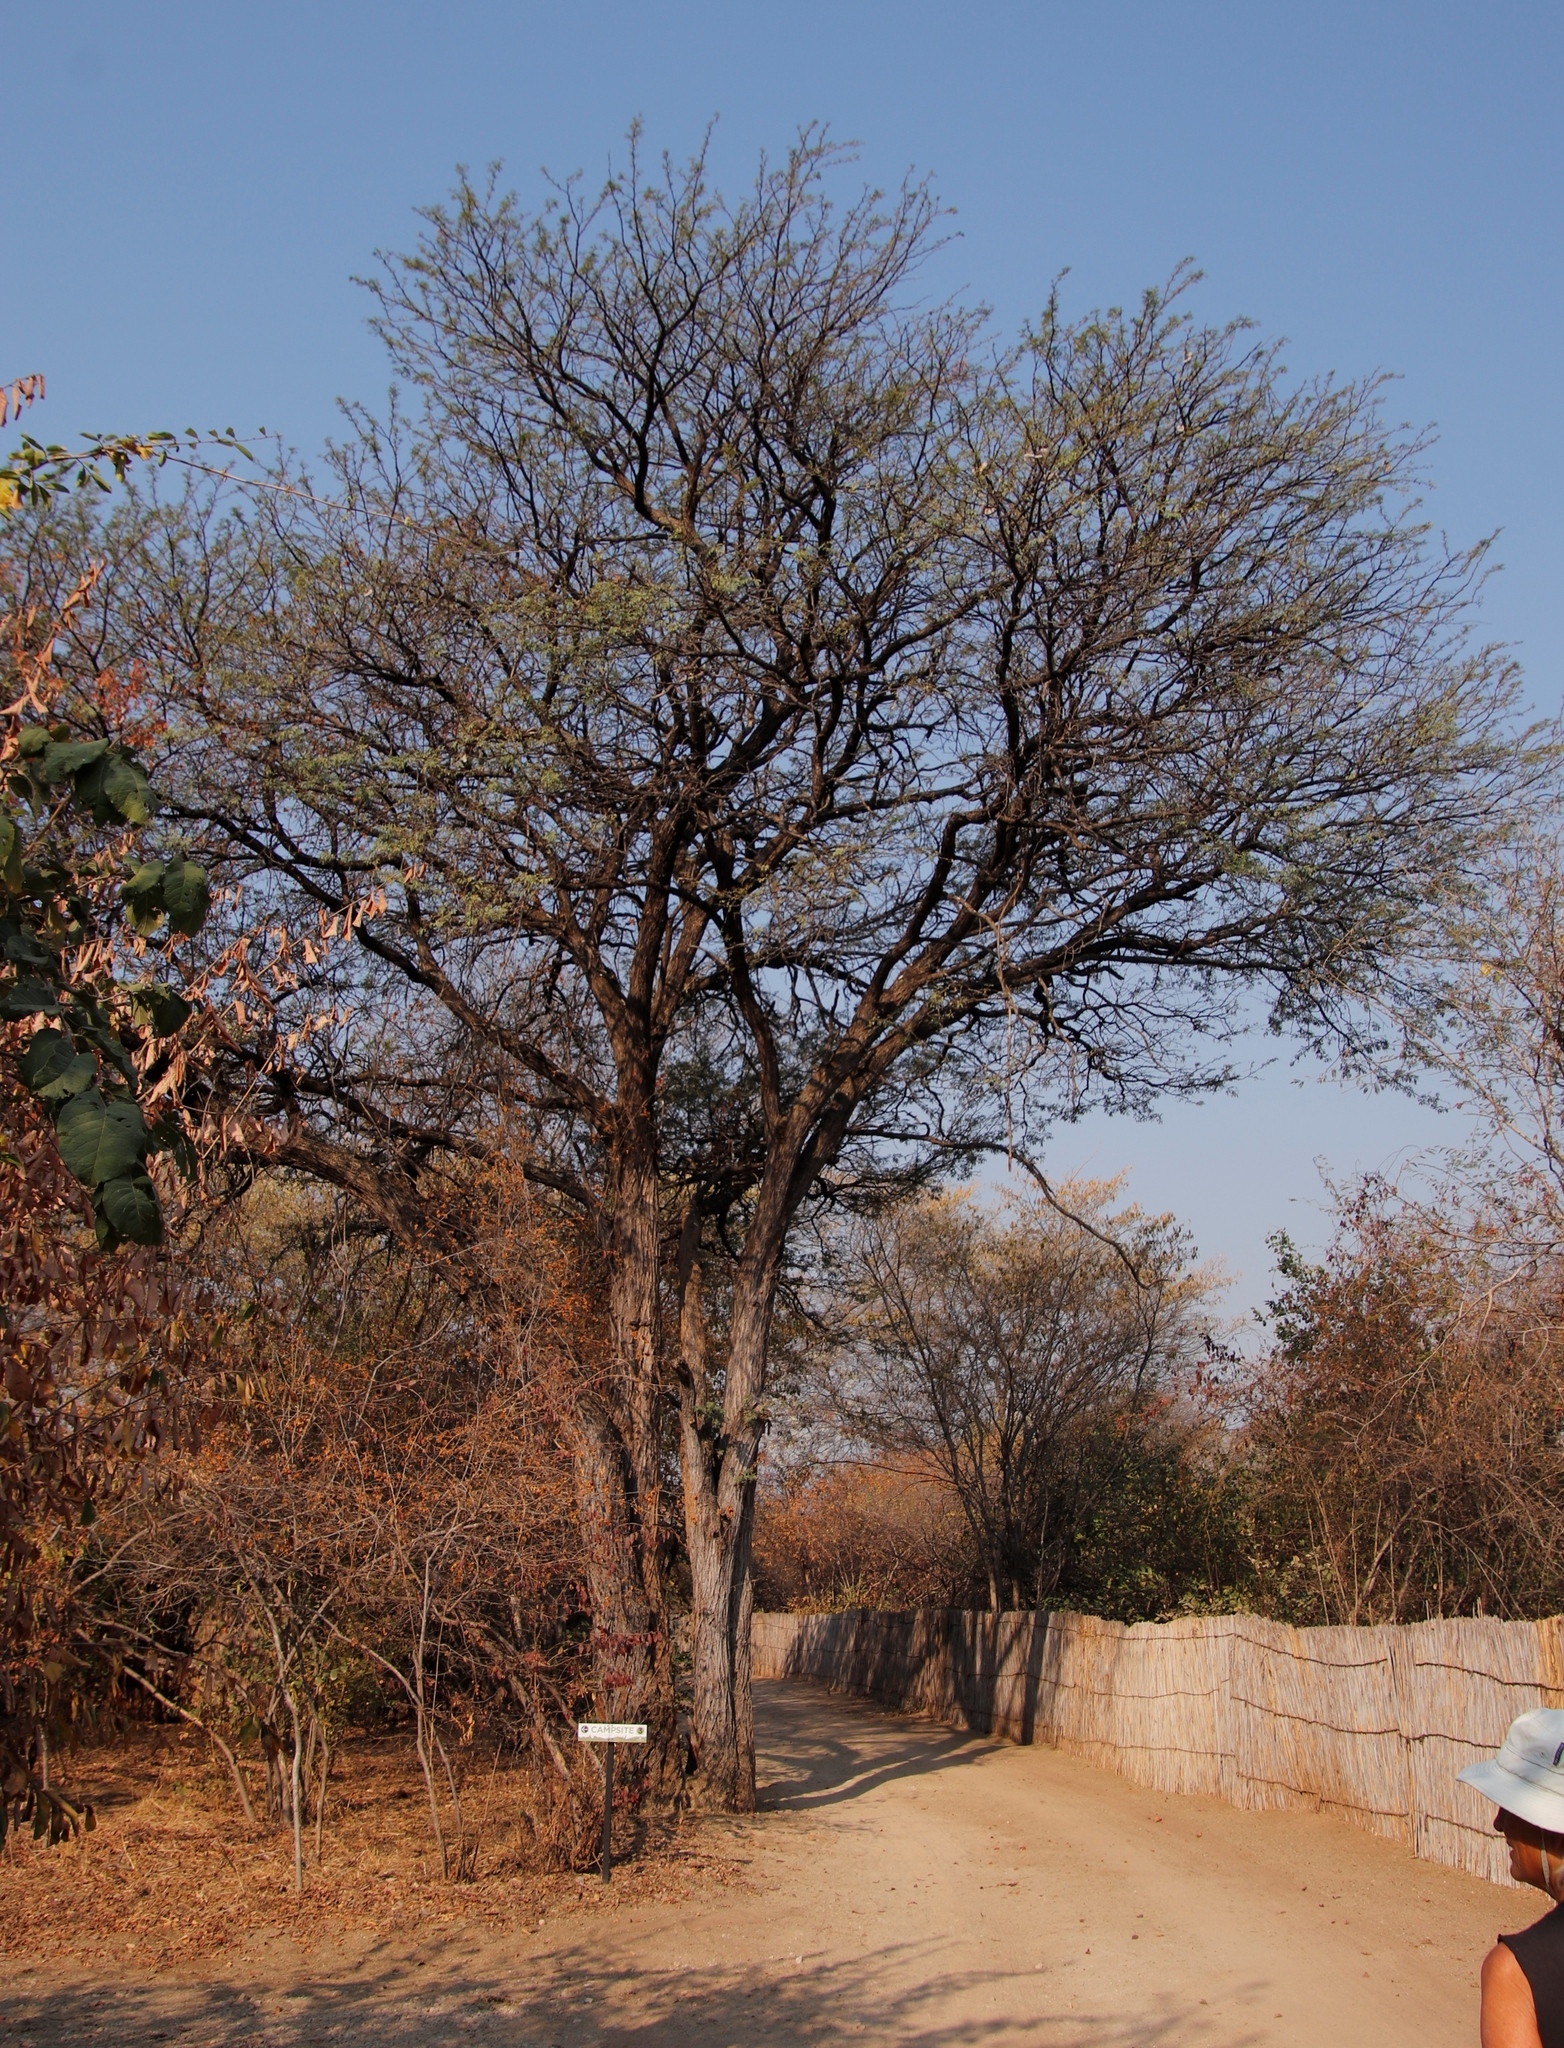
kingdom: Plantae
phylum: Tracheophyta
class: Magnoliopsida
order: Fabales
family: Fabaceae
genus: Vachellia
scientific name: Vachellia erioloba
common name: Camel thorn
